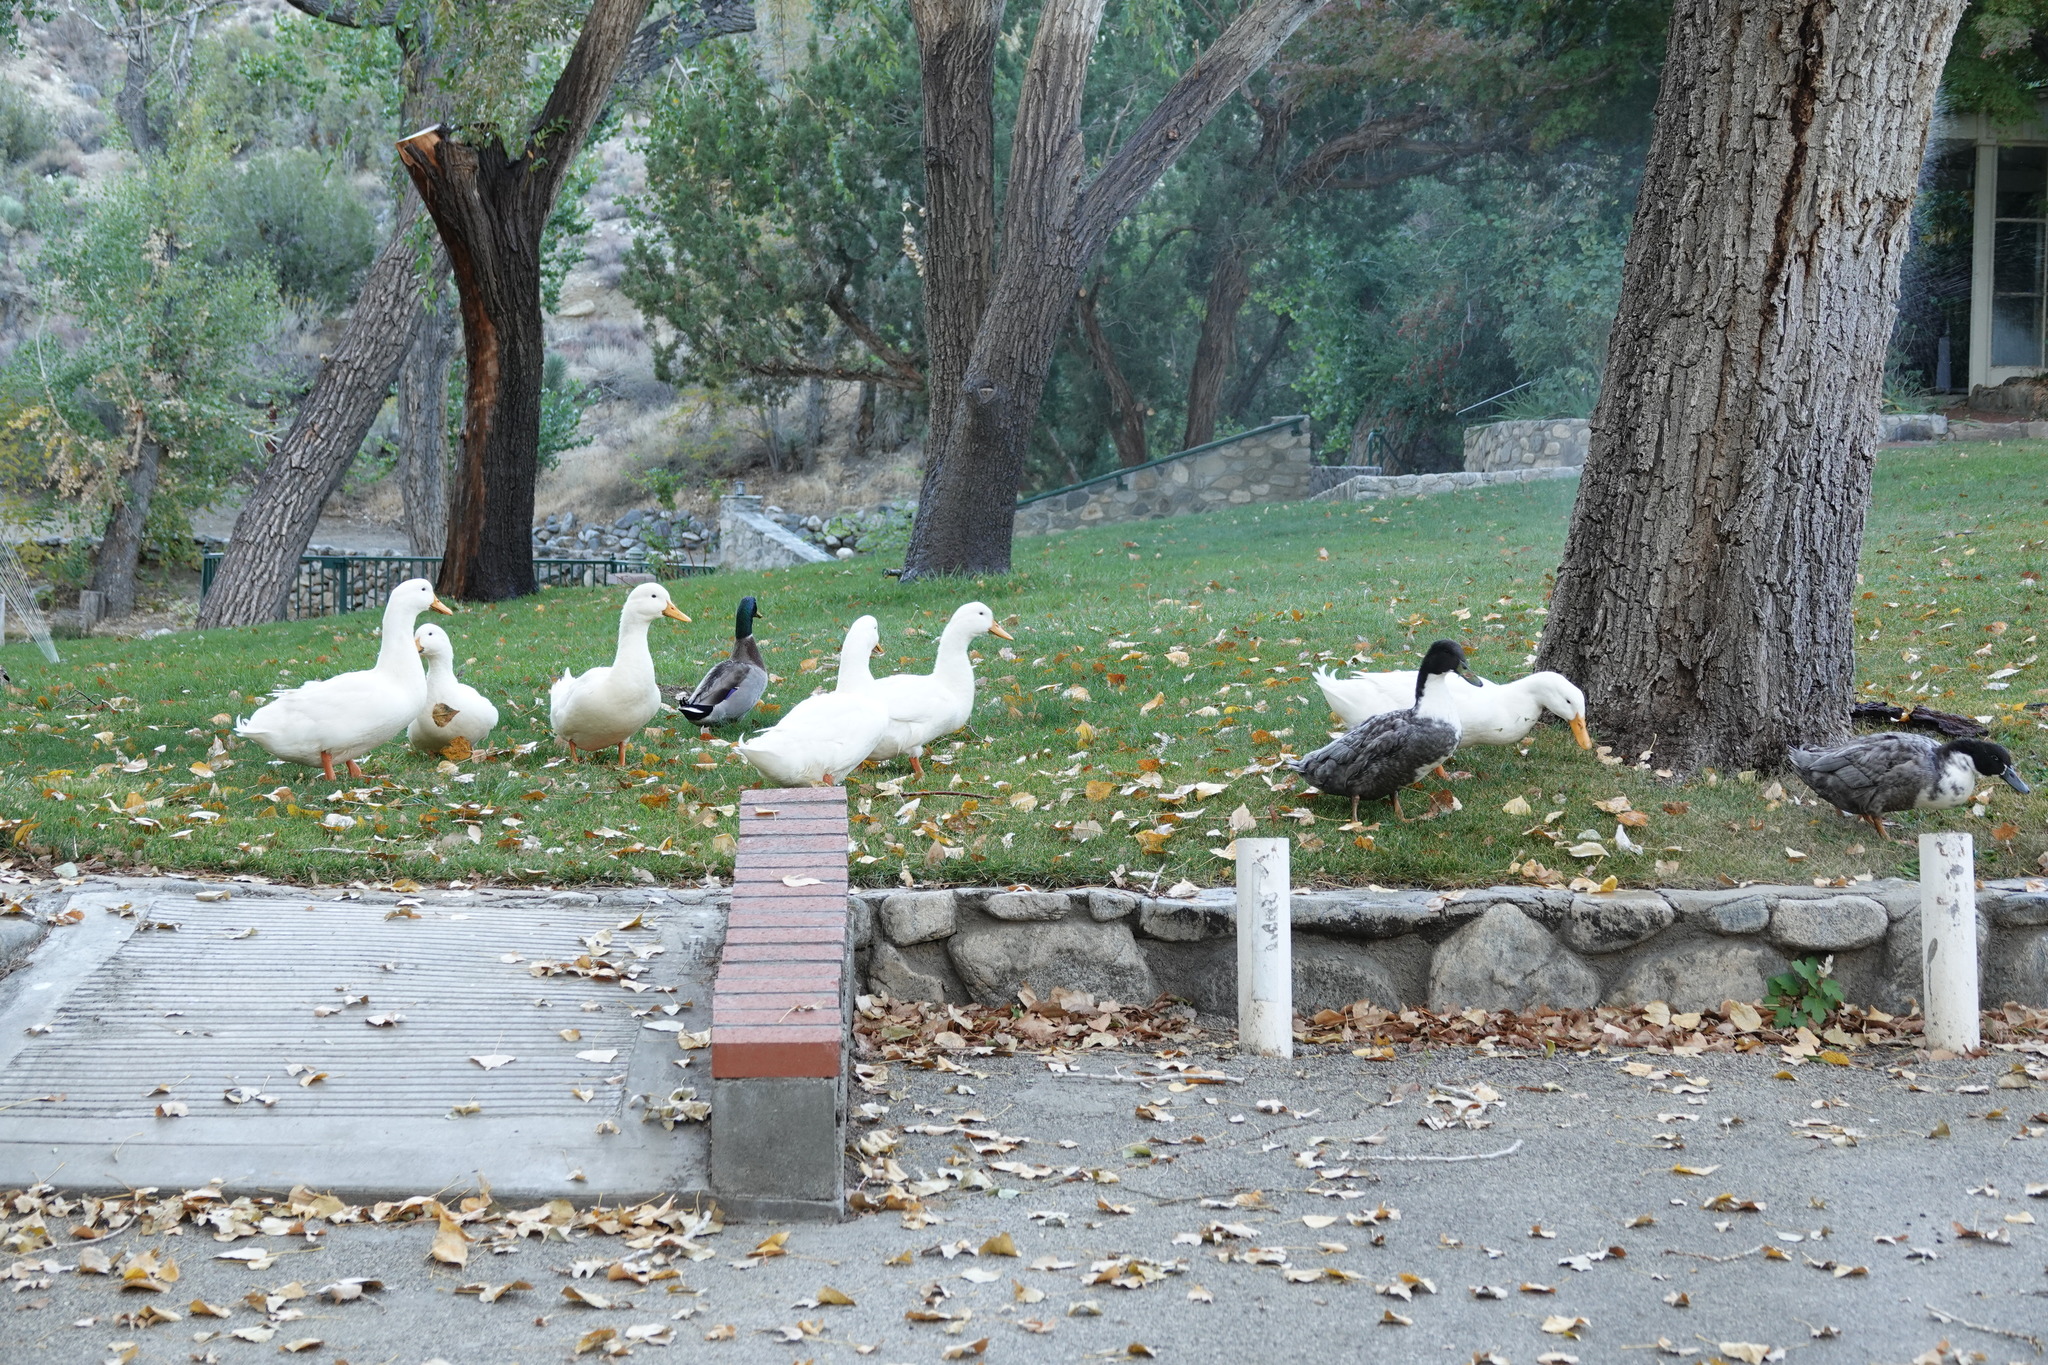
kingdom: Animalia
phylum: Chordata
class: Aves
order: Anseriformes
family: Anatidae
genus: Anas
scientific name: Anas platyrhynchos
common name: Mallard
